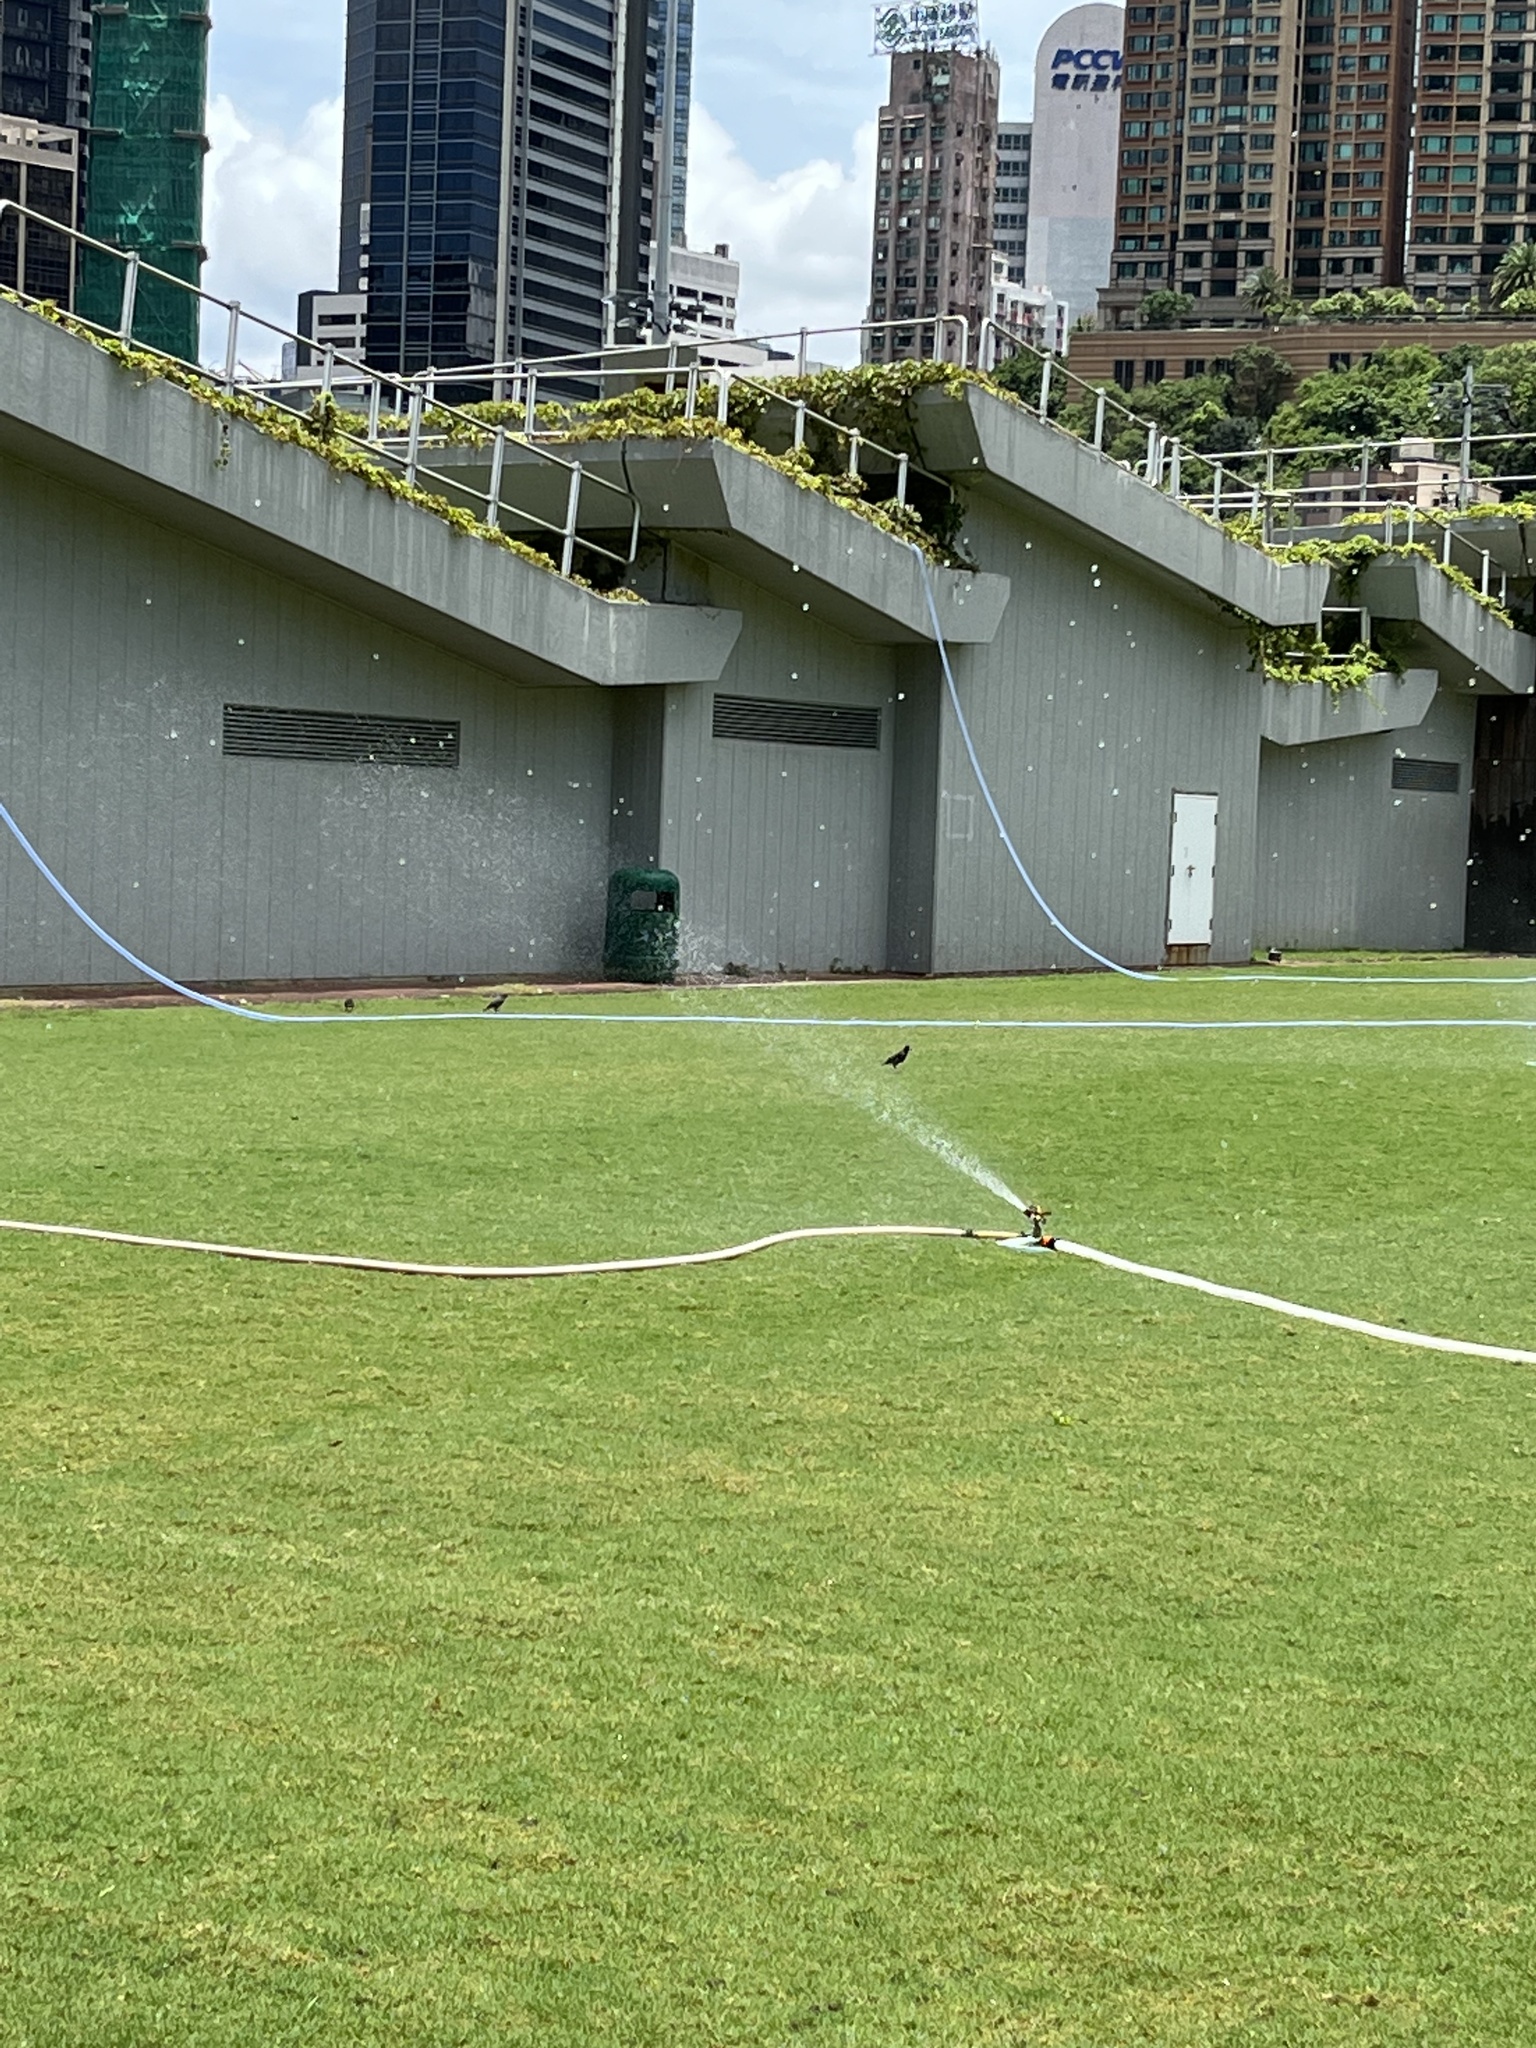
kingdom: Animalia
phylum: Chordata
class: Aves
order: Passeriformes
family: Sturnidae
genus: Acridotheres
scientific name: Acridotheres cristatellus
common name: Crested myna
